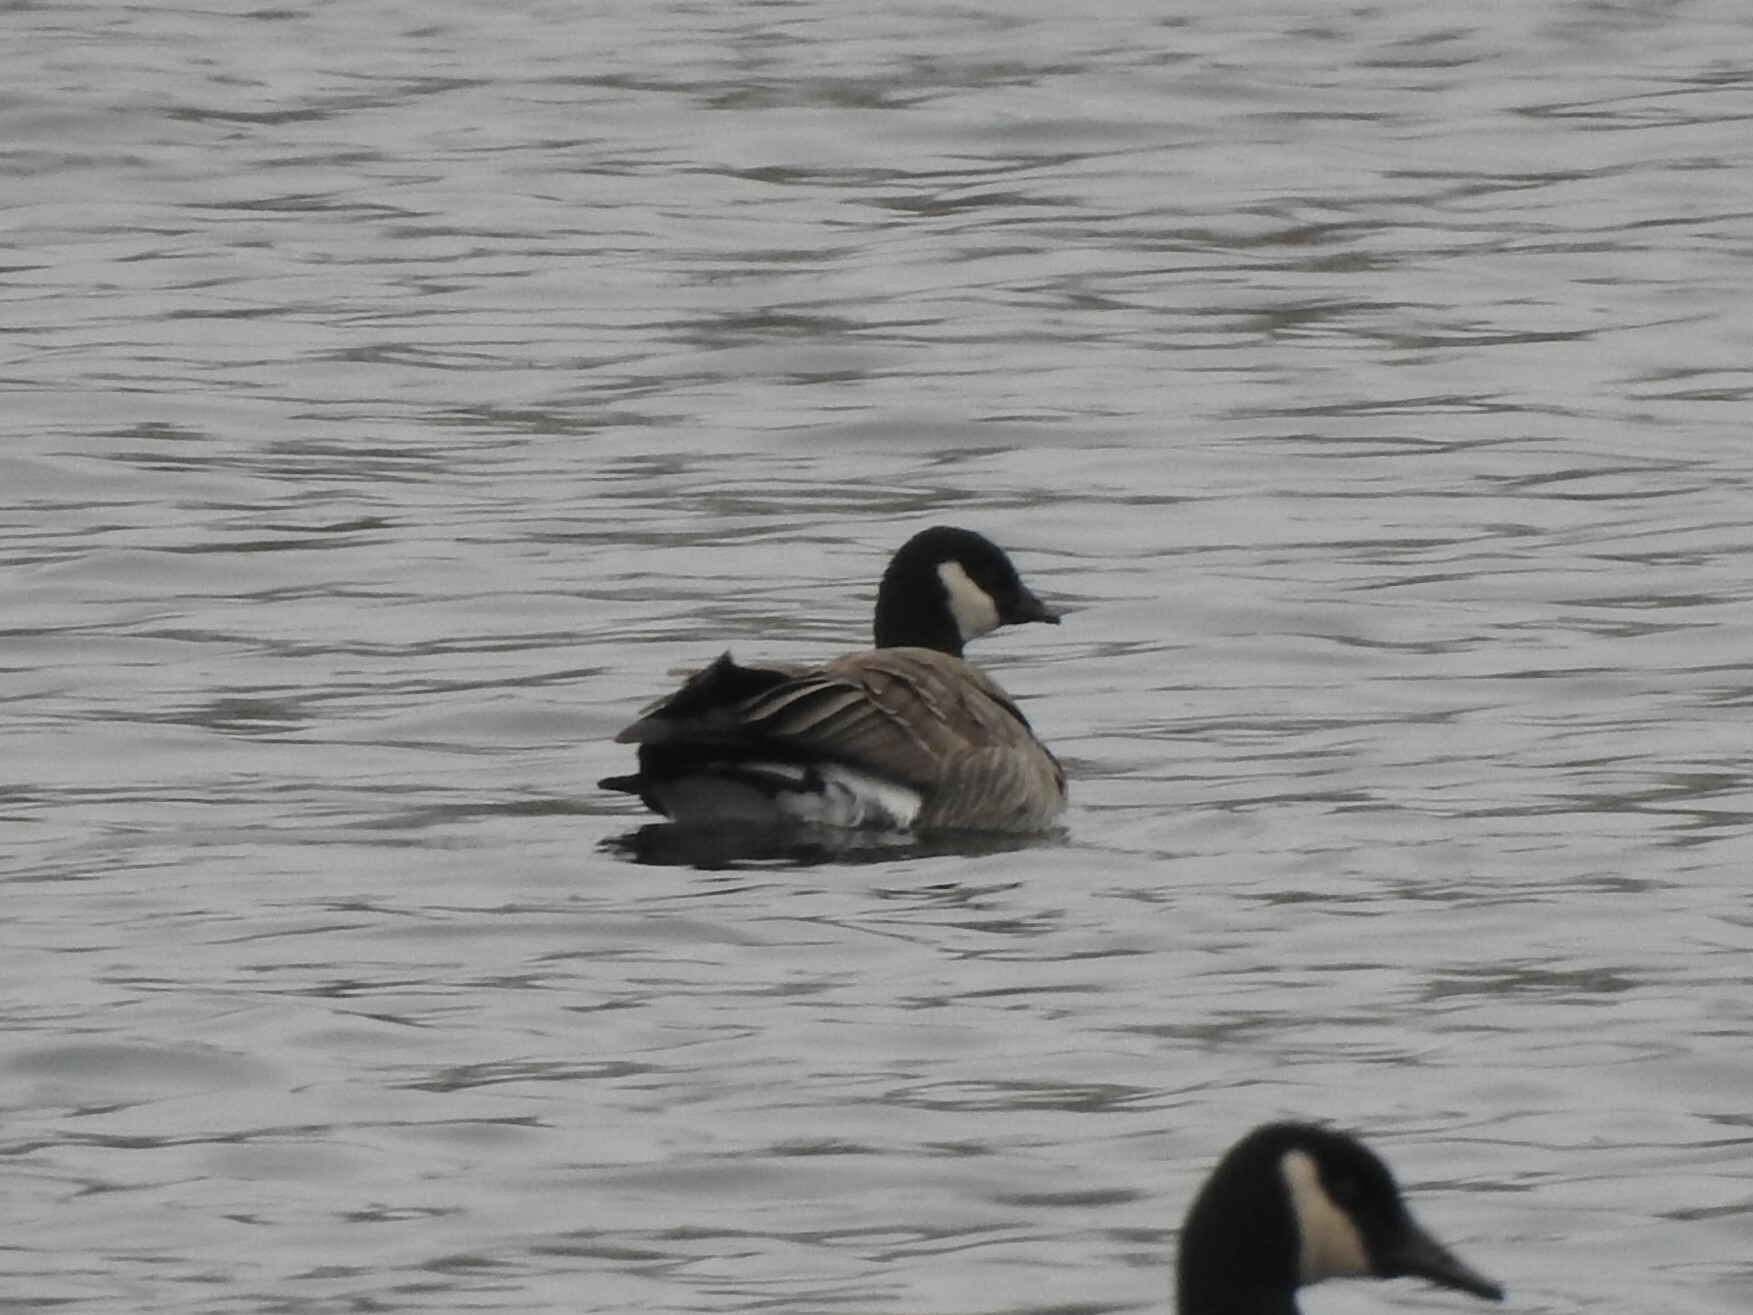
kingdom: Animalia
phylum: Chordata
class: Aves
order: Anseriformes
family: Anatidae
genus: Branta
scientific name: Branta hutchinsii
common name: Cackling goose
